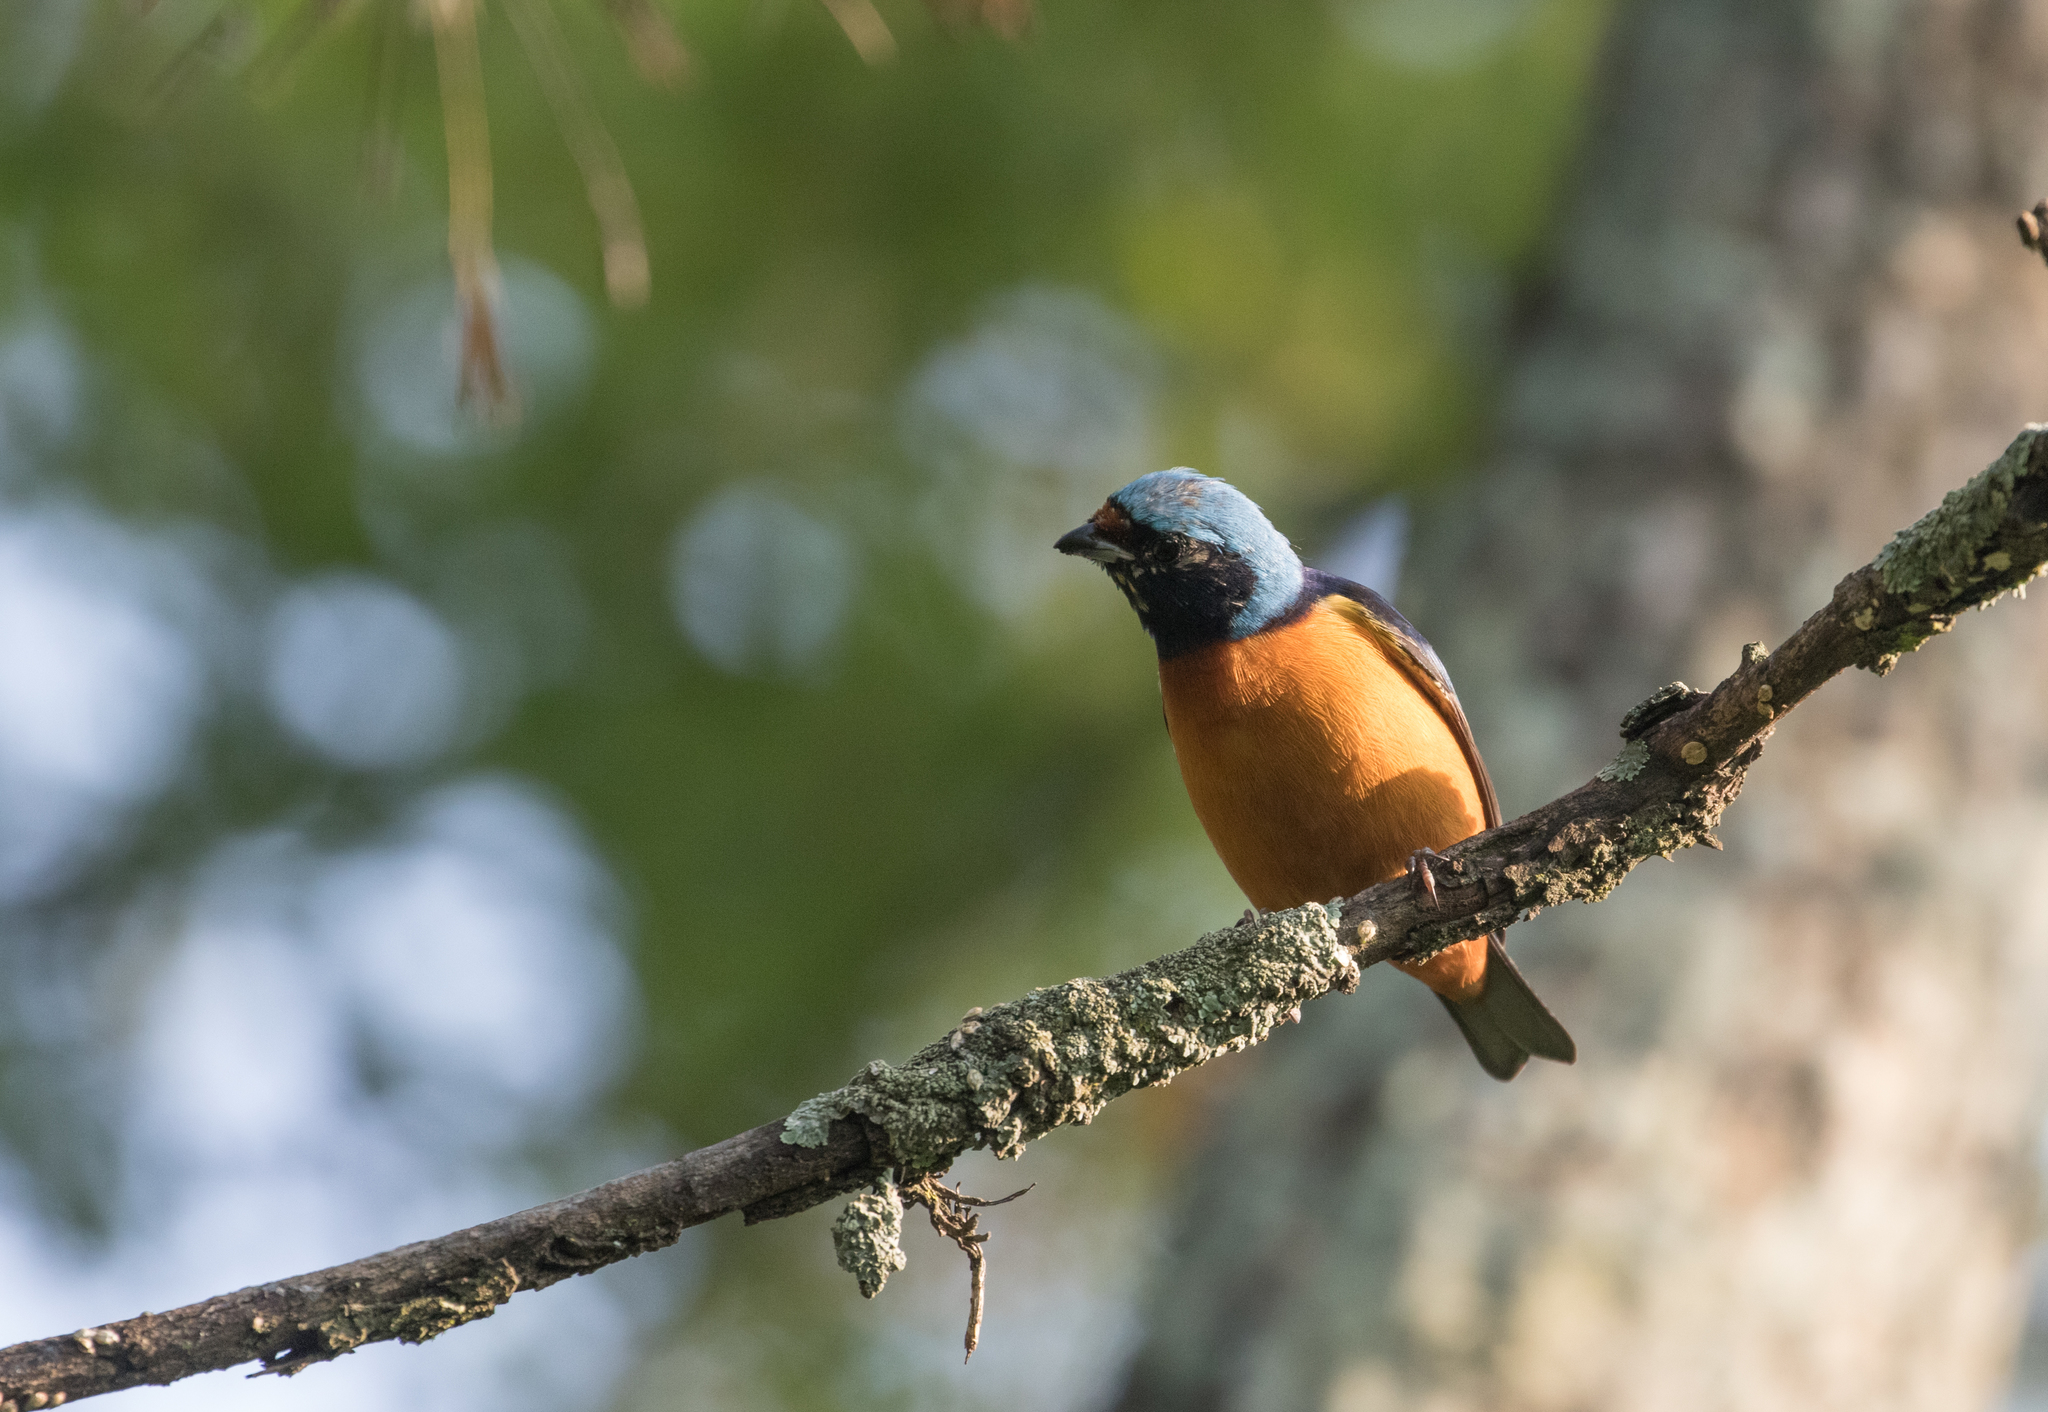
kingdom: Animalia
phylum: Chordata
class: Aves
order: Passeriformes
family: Fringillidae
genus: Euphonia
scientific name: Euphonia elegantissima
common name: Elegant euphonia
